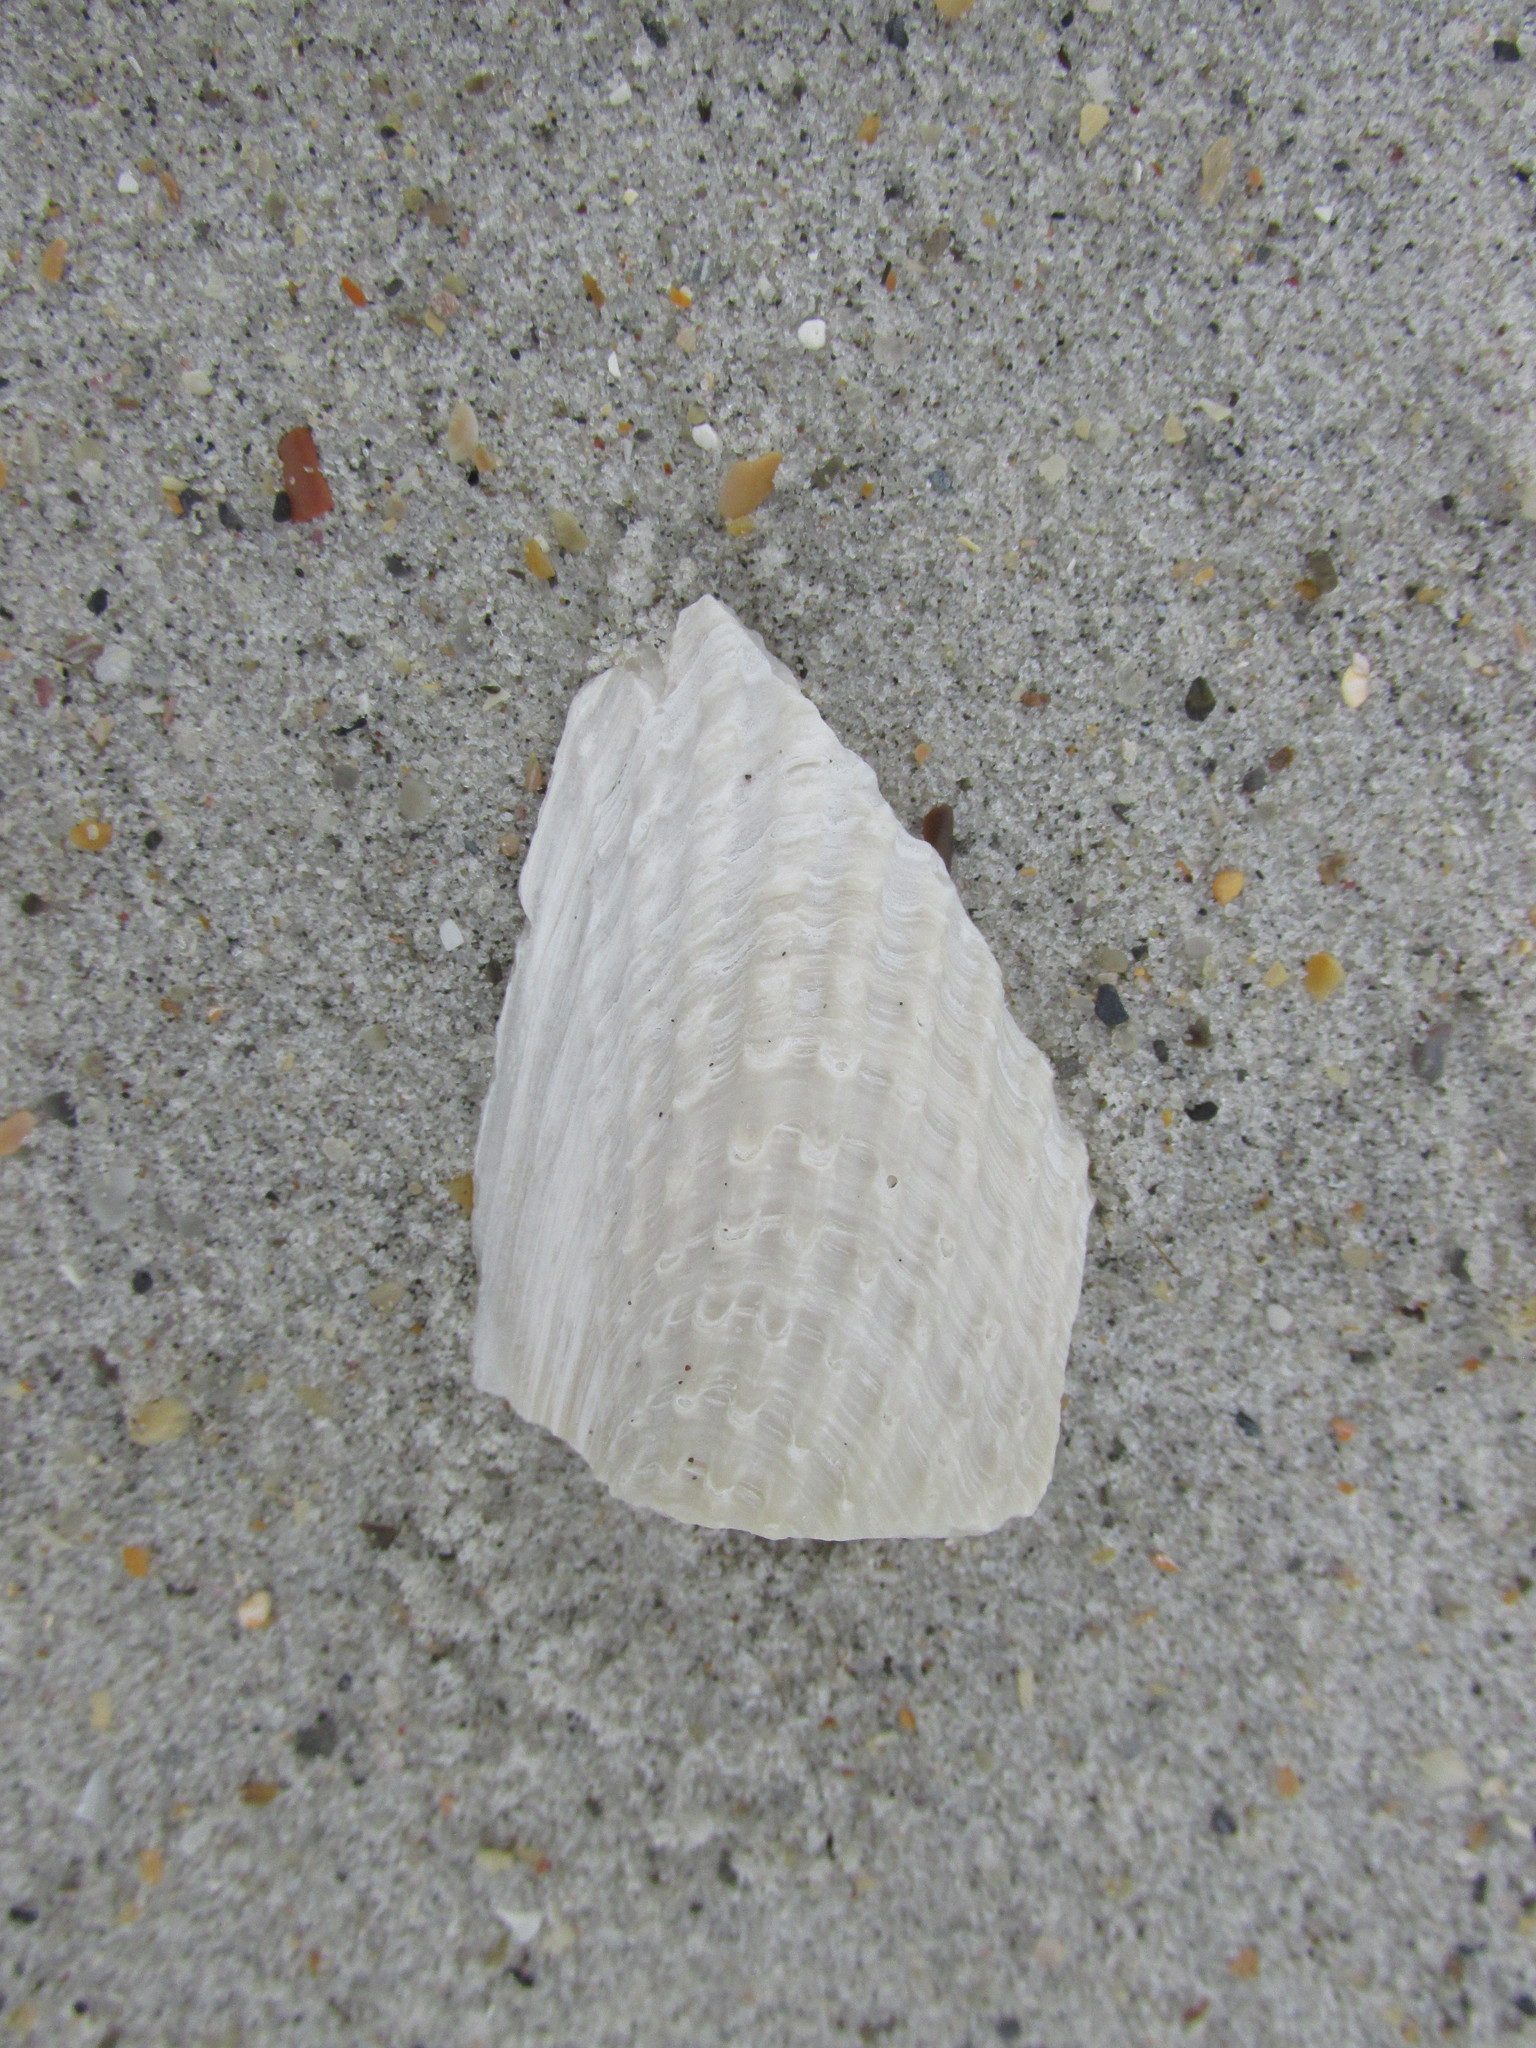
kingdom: Animalia
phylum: Mollusca
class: Bivalvia
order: Myida
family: Pholadidae
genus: Cyrtopleura
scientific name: Cyrtopleura costata
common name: Angel wing
